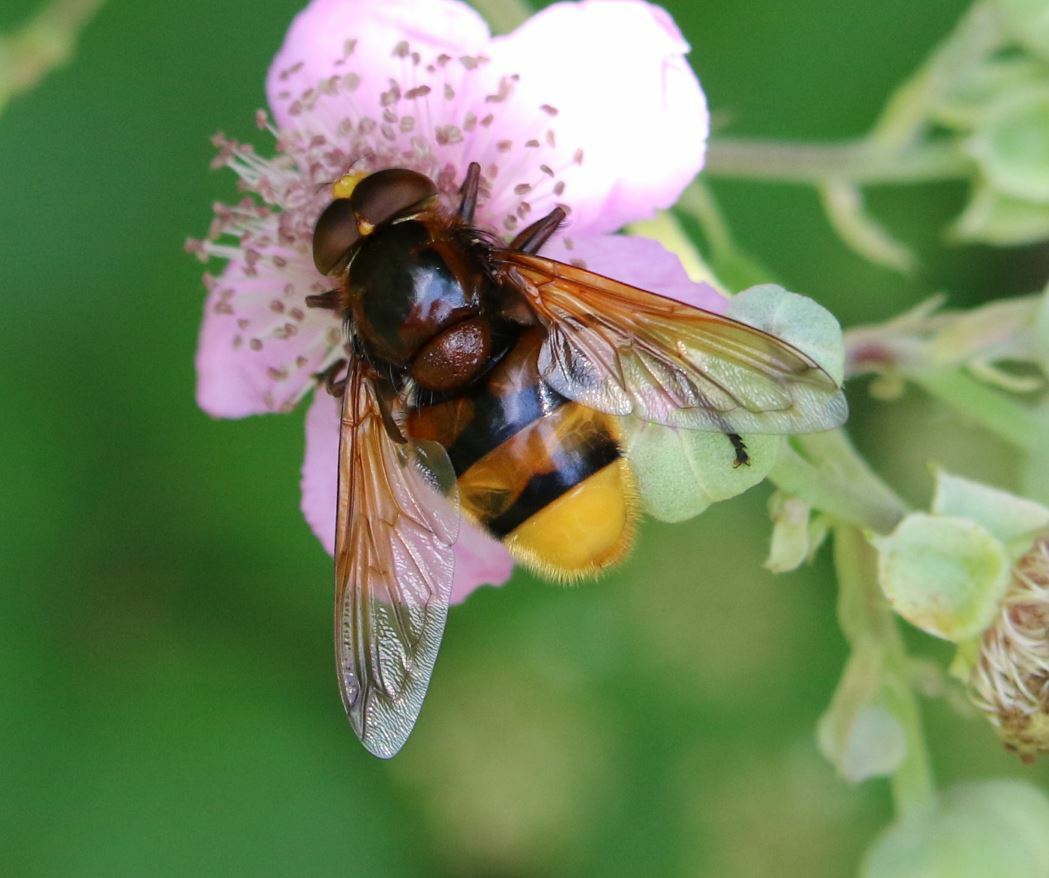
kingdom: Animalia
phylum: Arthropoda
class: Insecta
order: Diptera
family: Syrphidae
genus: Volucella
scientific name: Volucella zonaria
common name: Hornet hoverfly
